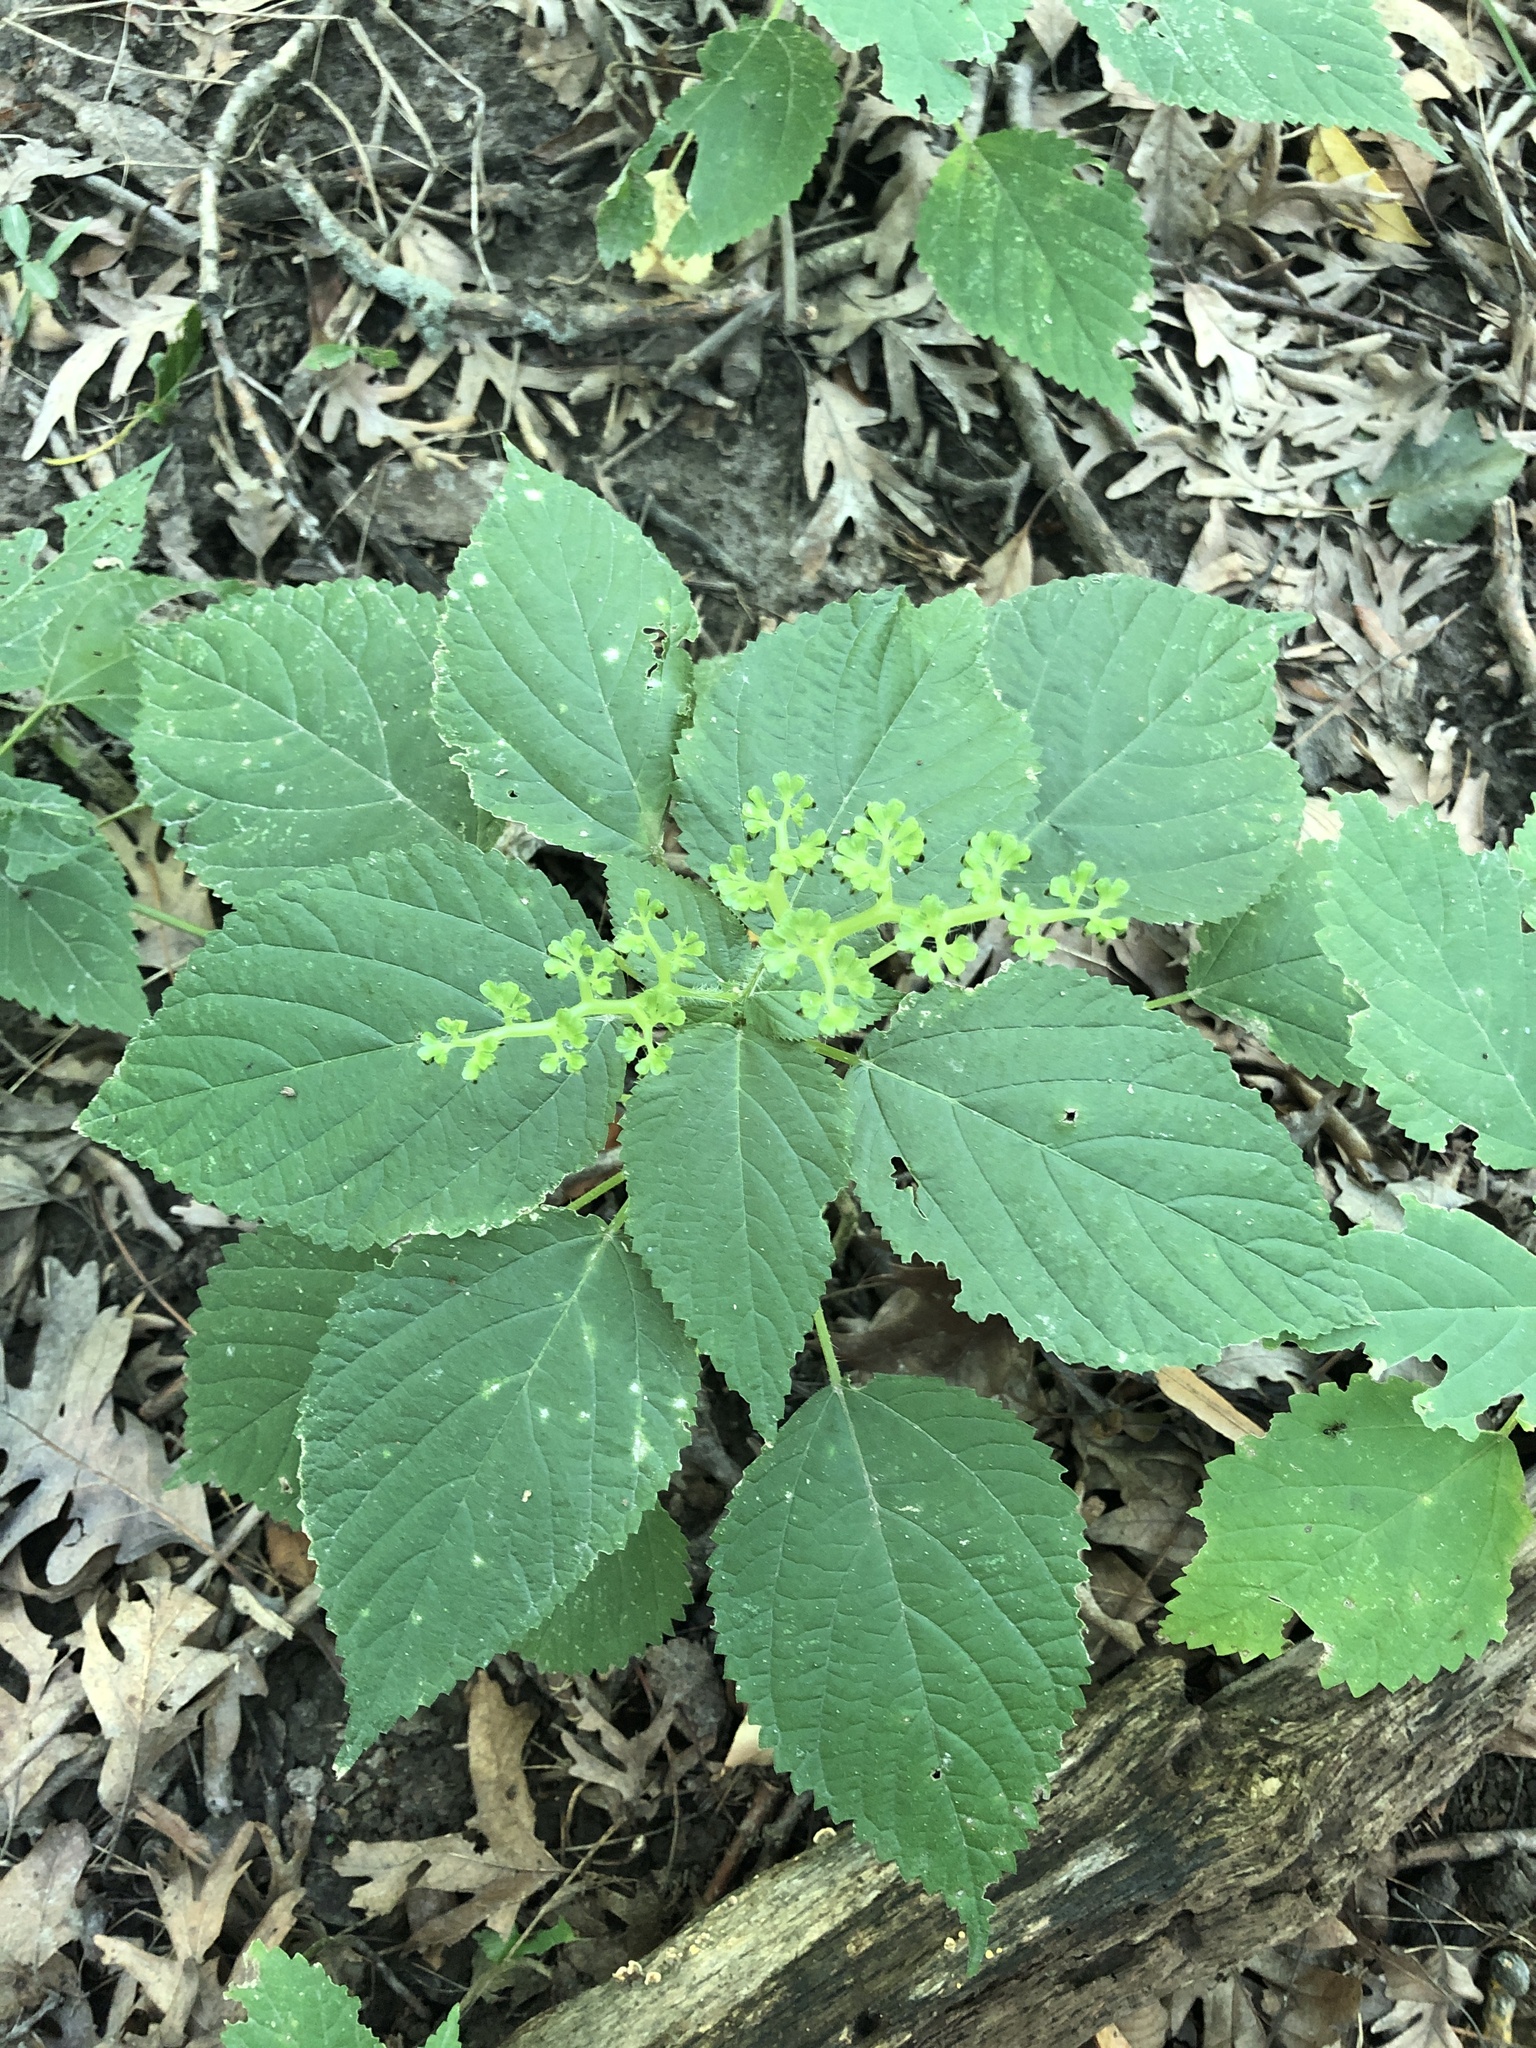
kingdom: Plantae
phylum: Tracheophyta
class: Magnoliopsida
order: Rosales
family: Urticaceae
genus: Laportea
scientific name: Laportea canadensis
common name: Canada nettle
